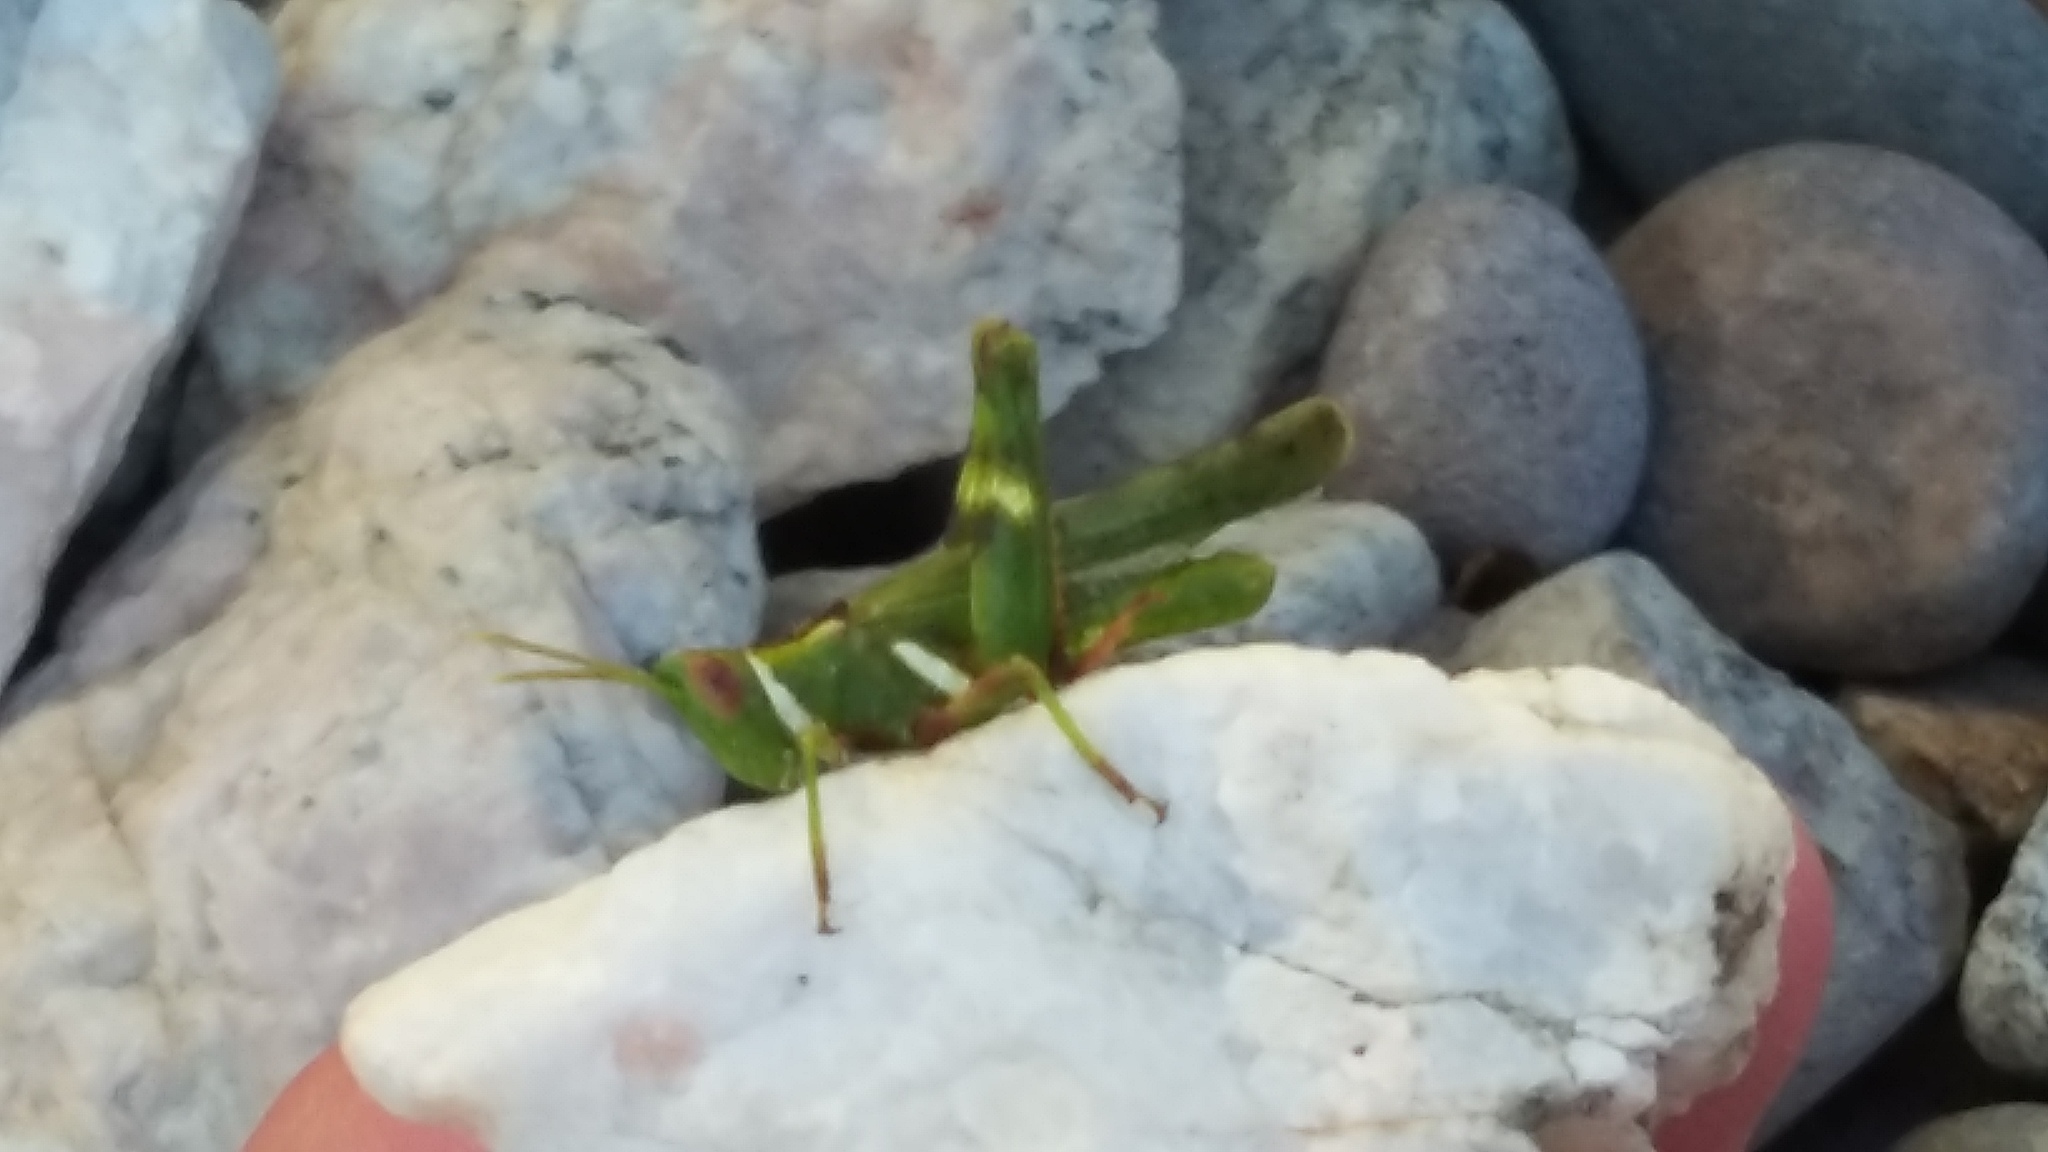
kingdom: Animalia
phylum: Arthropoda
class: Insecta
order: Orthoptera
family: Acrididae
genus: Bootettix
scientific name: Bootettix argentatus
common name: Creosote bush grasshopper
